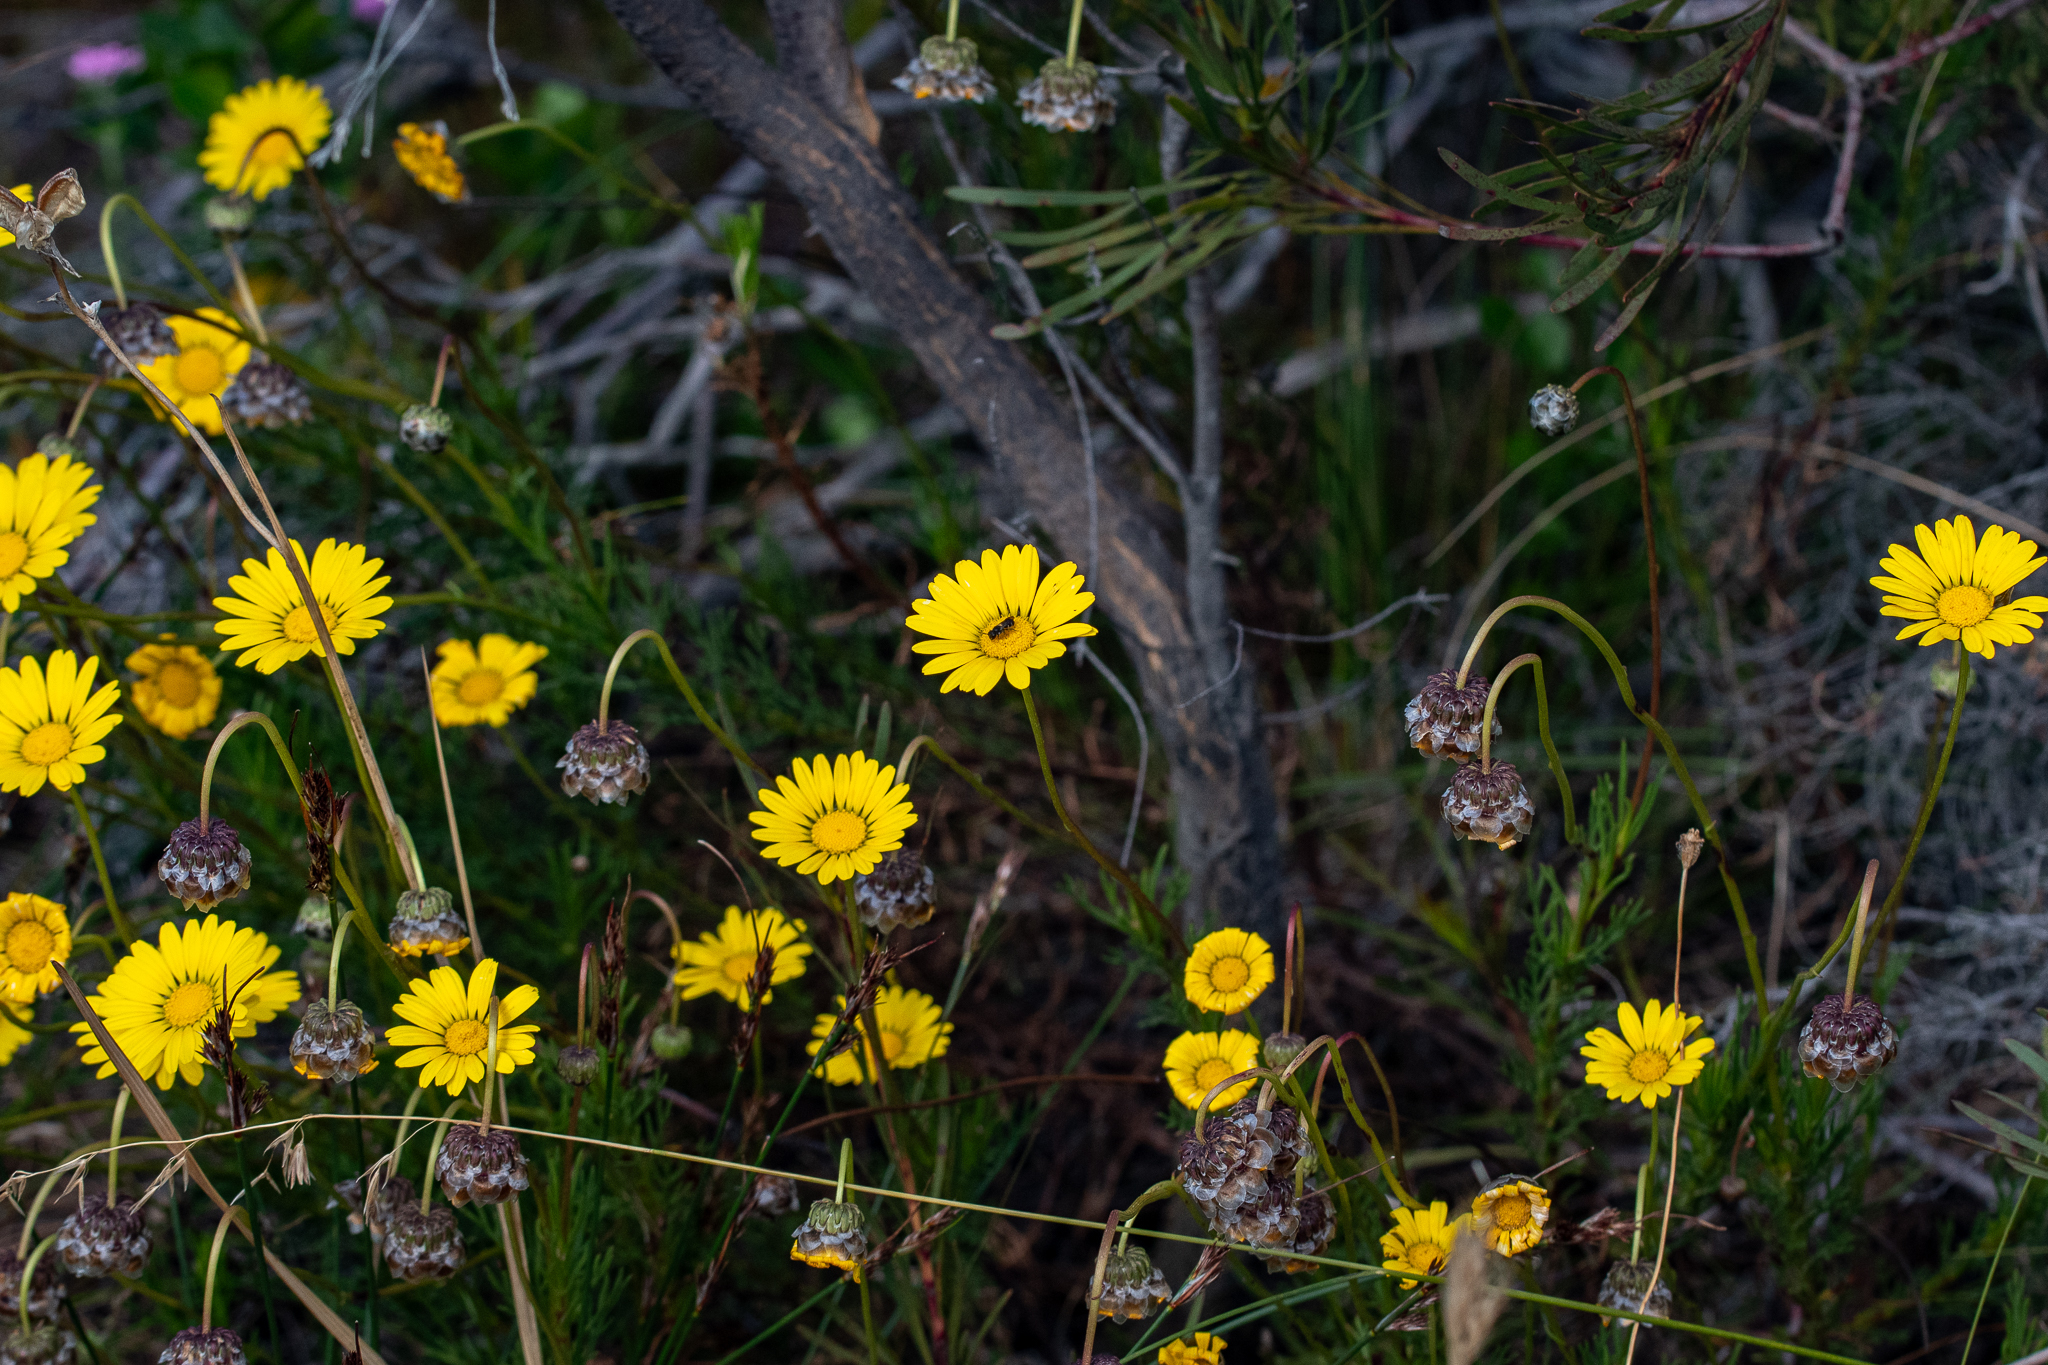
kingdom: Plantae
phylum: Tracheophyta
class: Magnoliopsida
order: Asterales
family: Asteraceae
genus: Ursinia
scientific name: Ursinia paleacea
